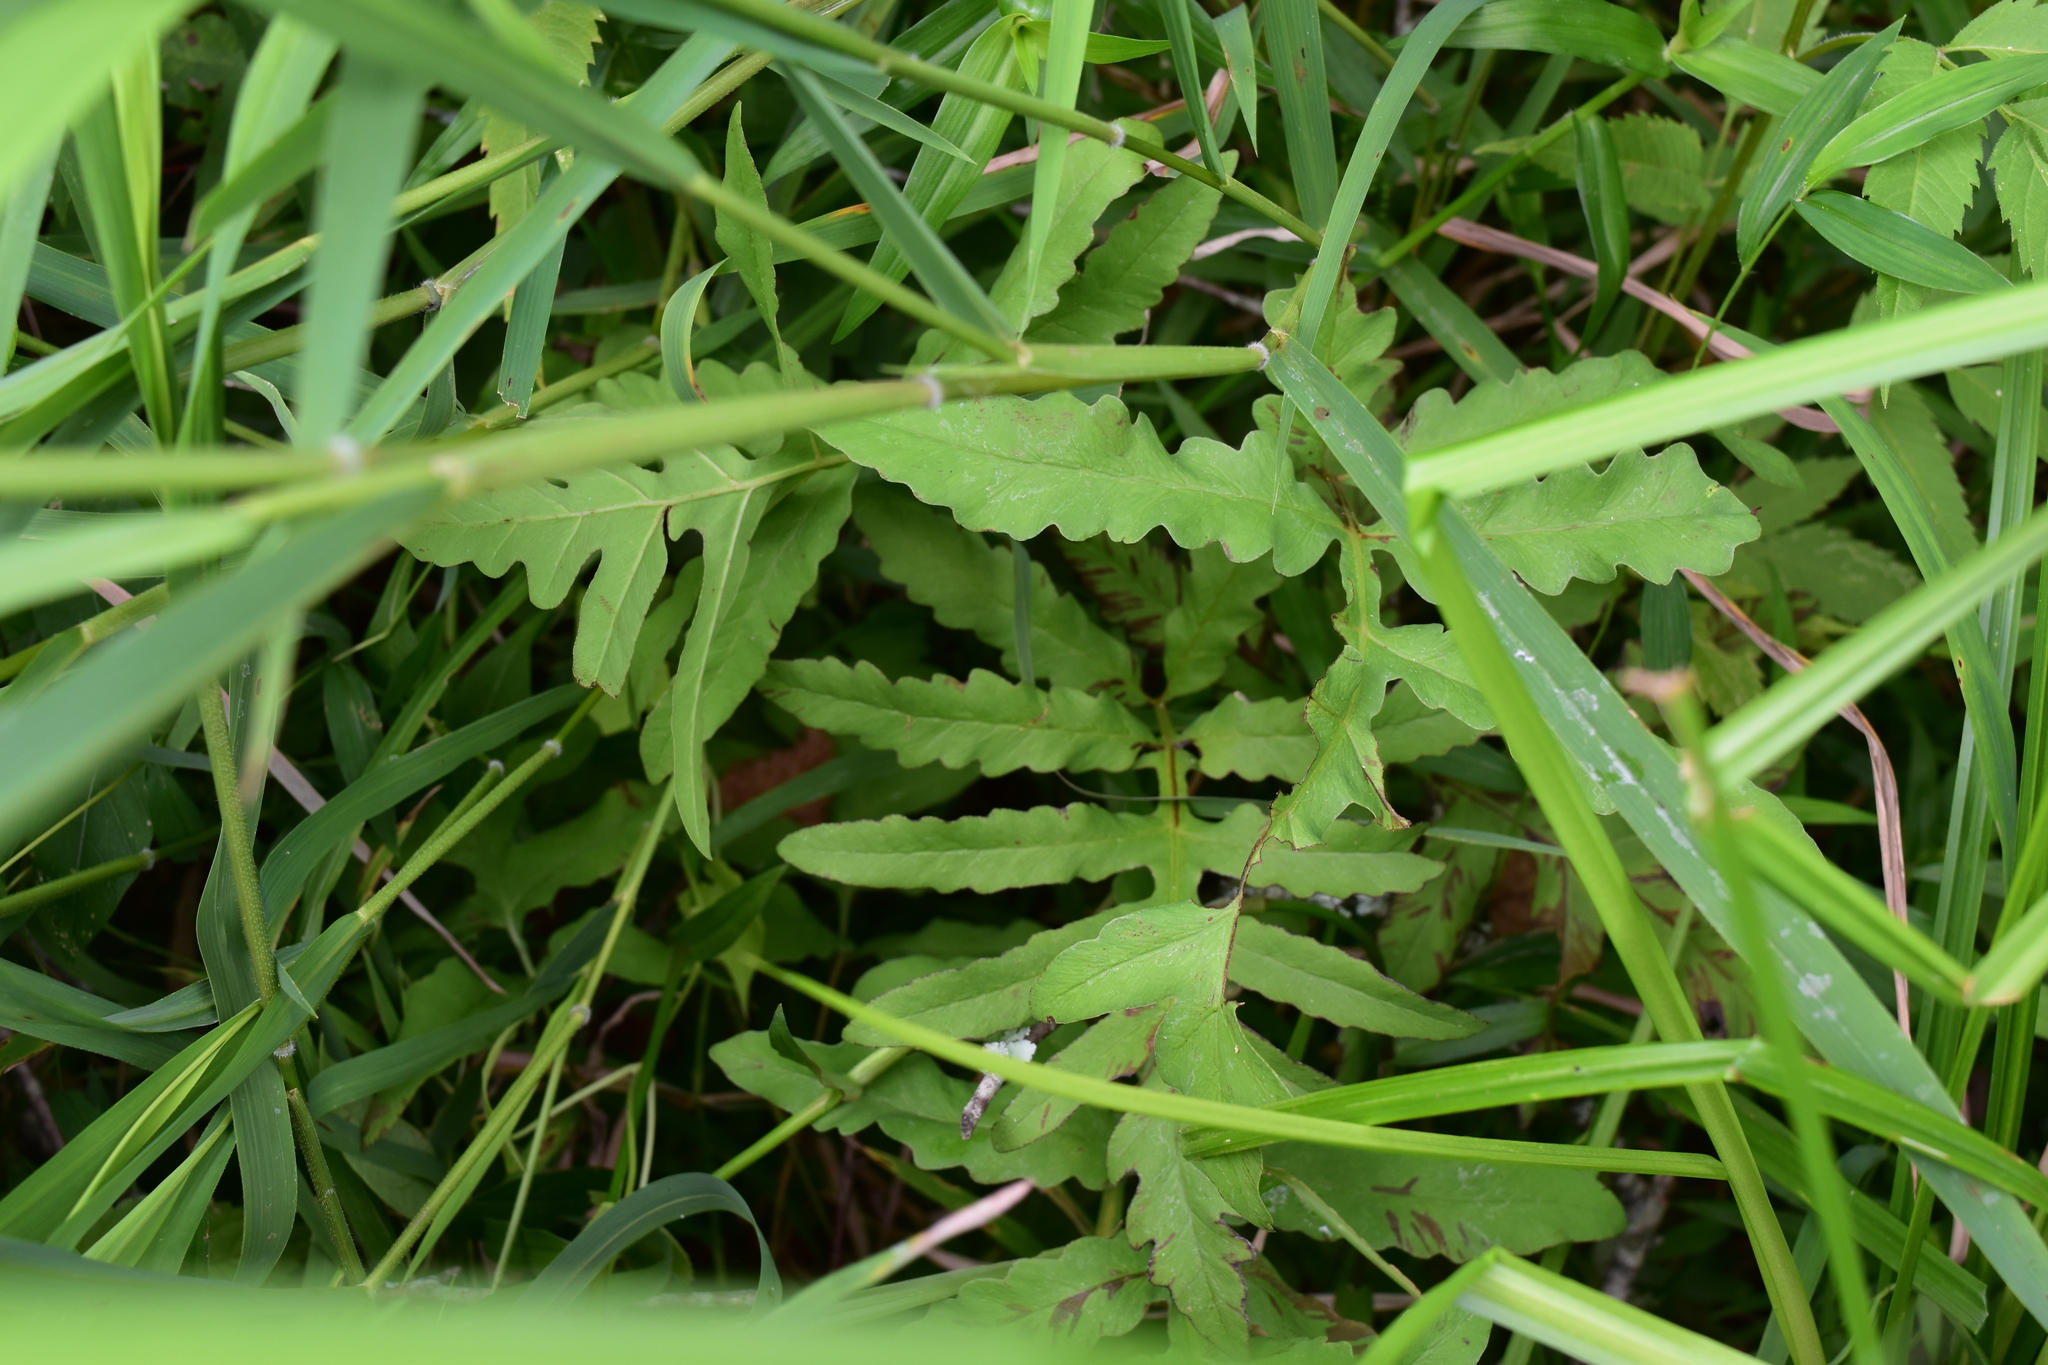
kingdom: Plantae
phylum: Tracheophyta
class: Polypodiopsida
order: Polypodiales
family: Onocleaceae
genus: Onoclea
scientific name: Onoclea sensibilis
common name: Sensitive fern
